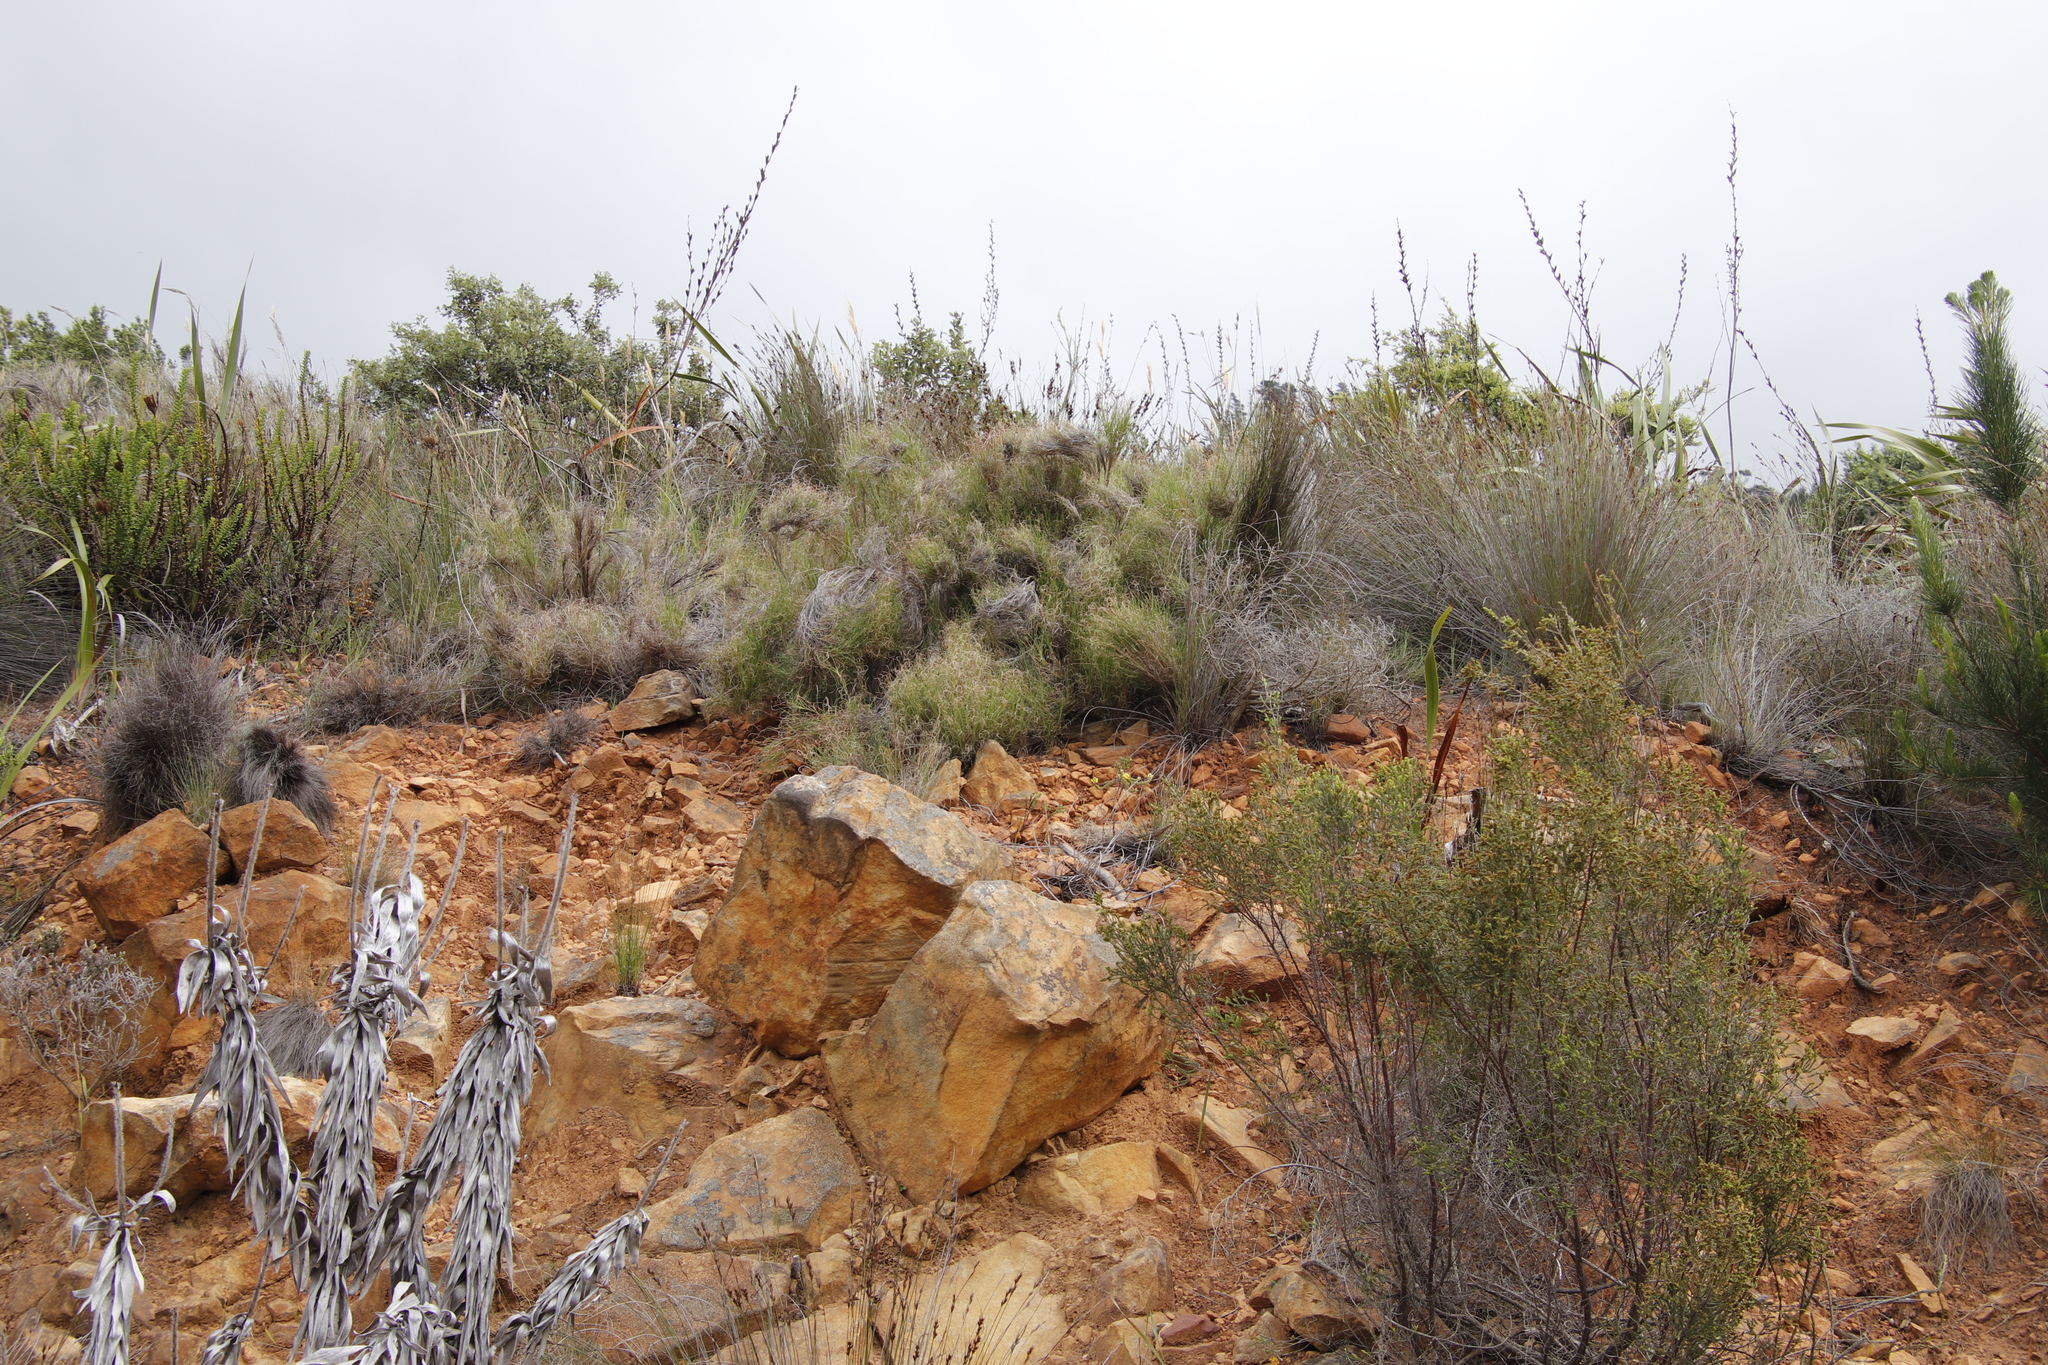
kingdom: Plantae
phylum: Tracheophyta
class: Liliopsida
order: Poales
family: Poaceae
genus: Pseudopentameris
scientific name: Pseudopentameris macrantha
